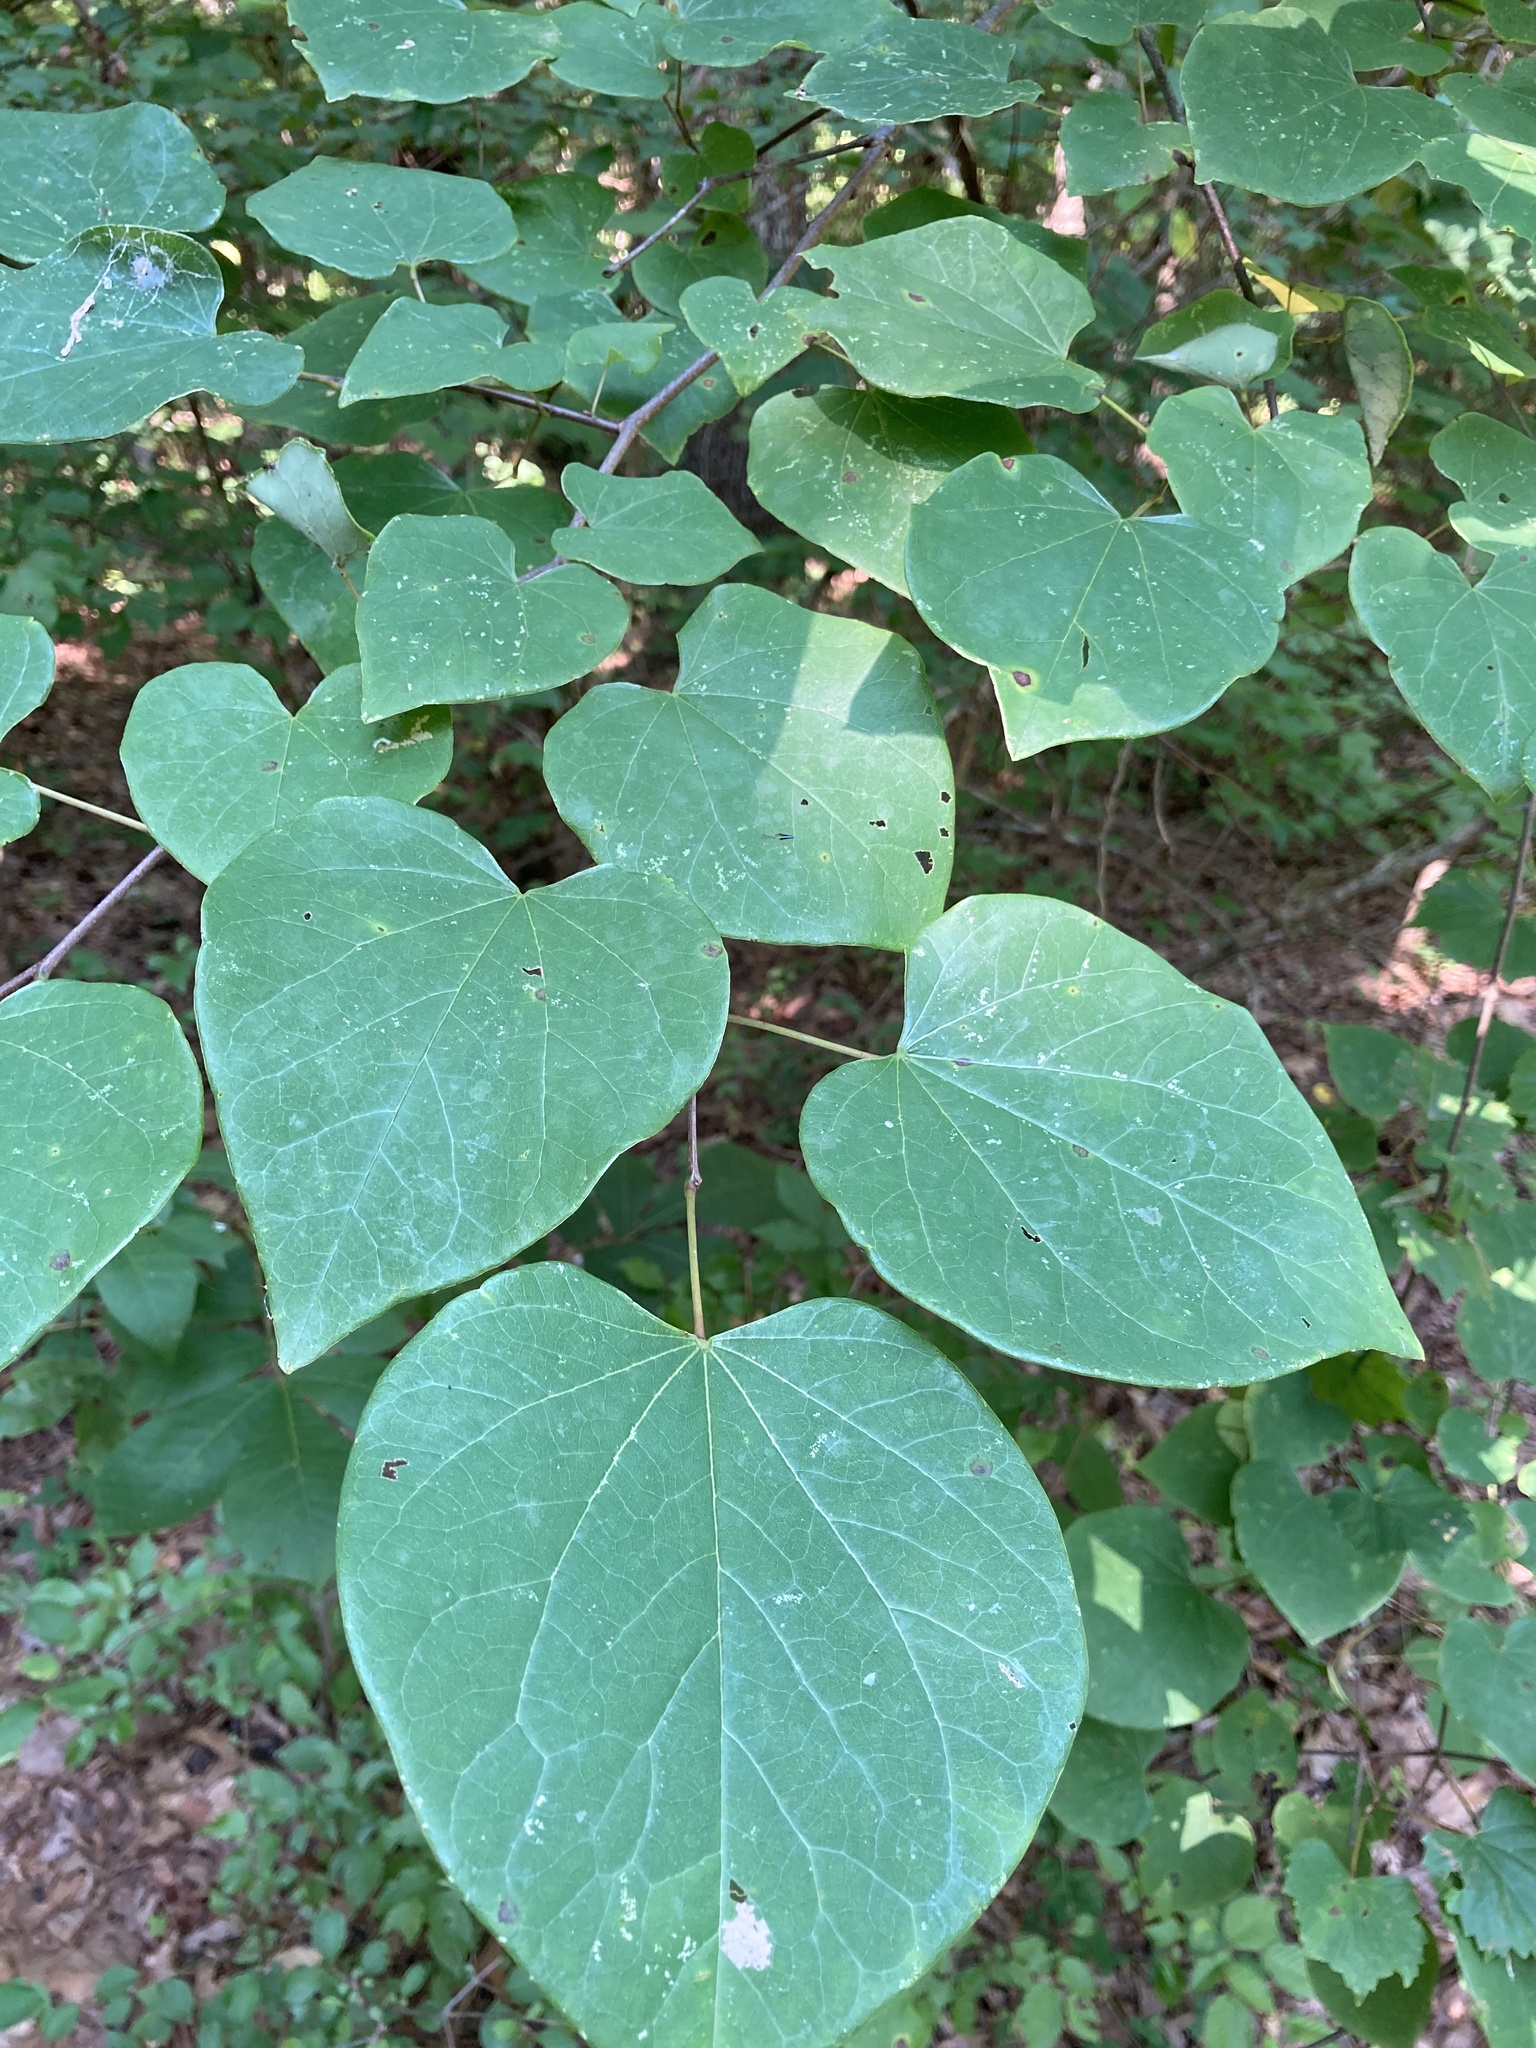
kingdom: Plantae
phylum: Tracheophyta
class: Magnoliopsida
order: Fabales
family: Fabaceae
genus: Cercis
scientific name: Cercis canadensis
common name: Eastern redbud
